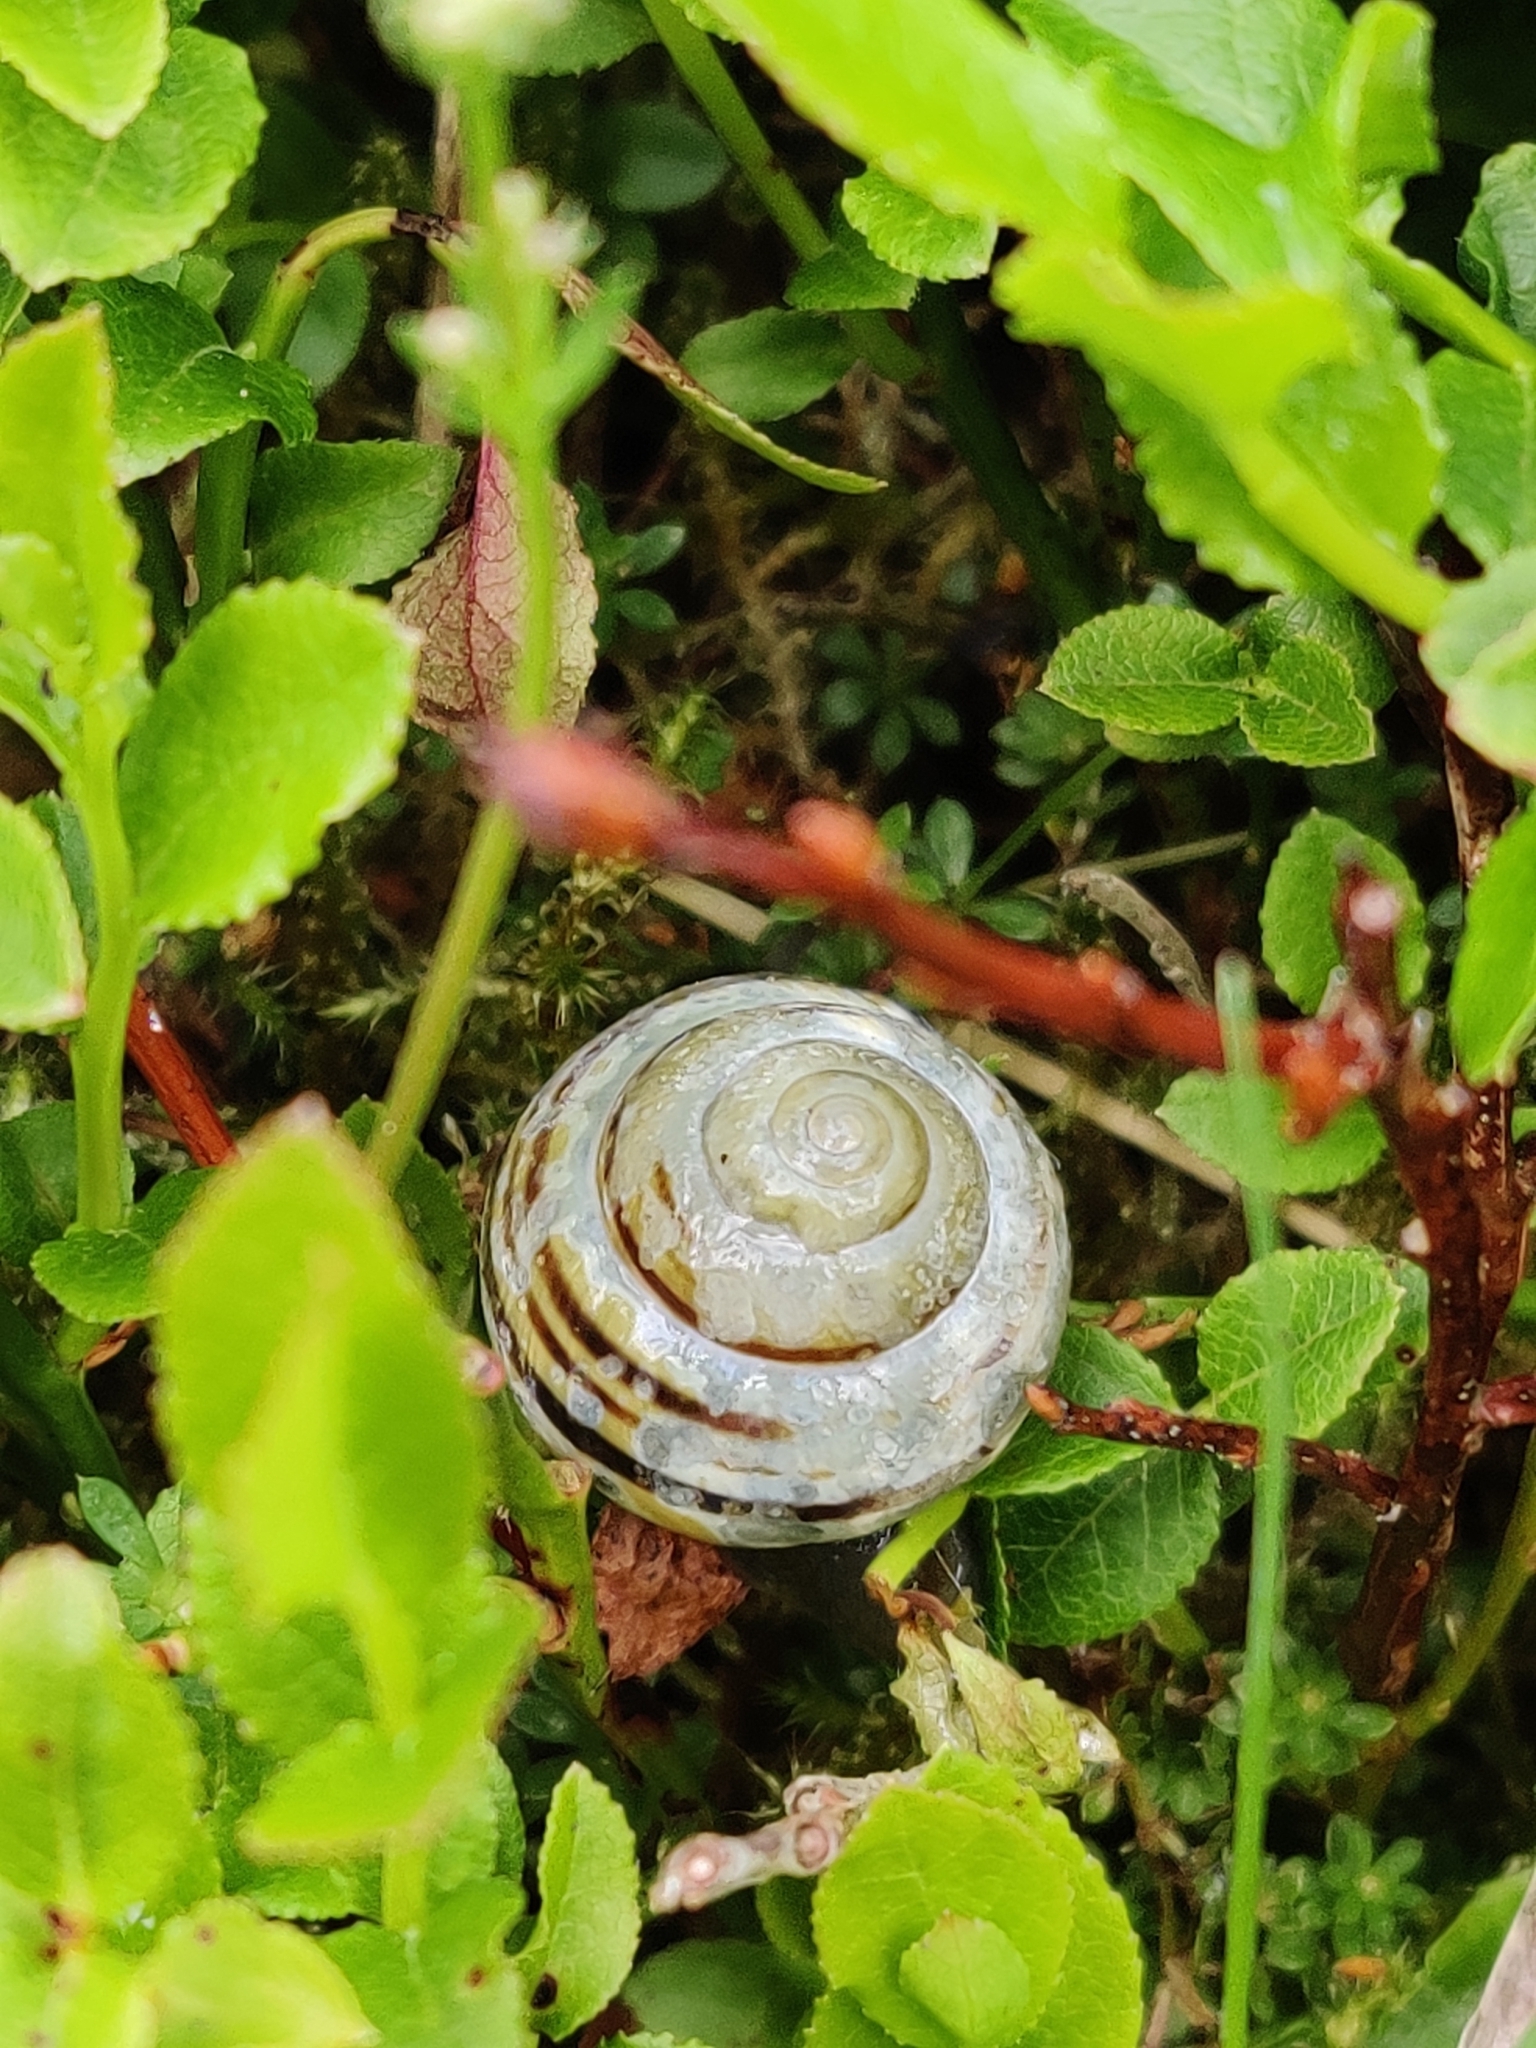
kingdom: Animalia
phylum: Mollusca
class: Gastropoda
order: Stylommatophora
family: Helicidae
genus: Cepaea
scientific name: Cepaea nemoralis
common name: Grovesnail
